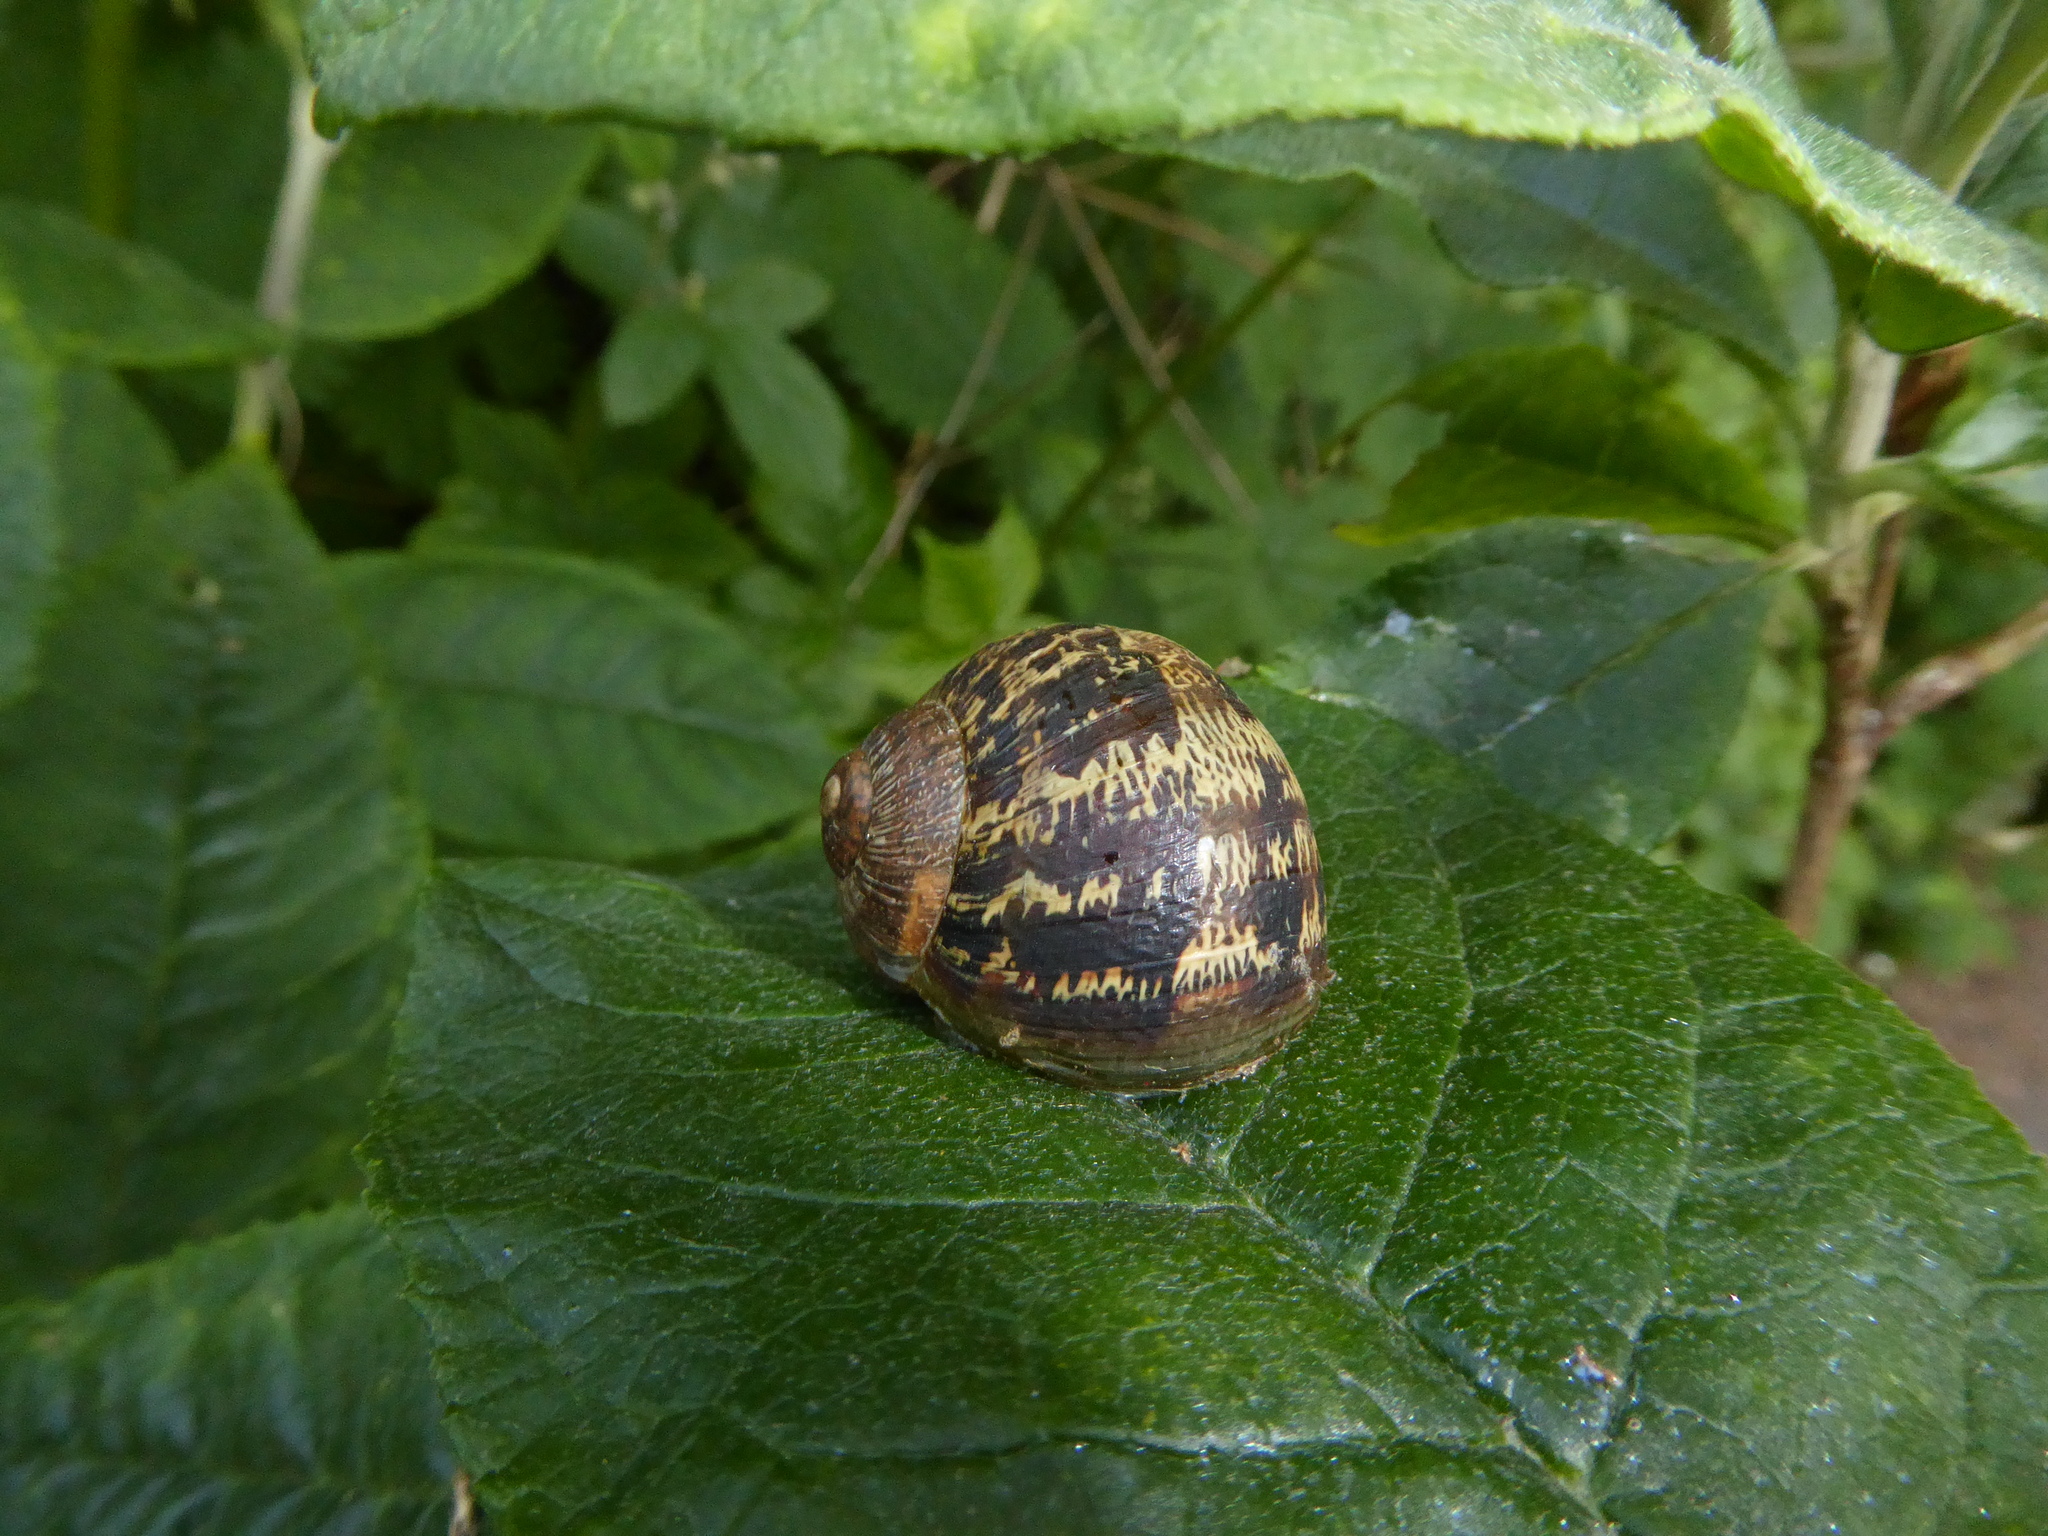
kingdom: Animalia
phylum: Mollusca
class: Gastropoda
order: Stylommatophora
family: Helicidae
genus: Cornu
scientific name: Cornu aspersum
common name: Brown garden snail
